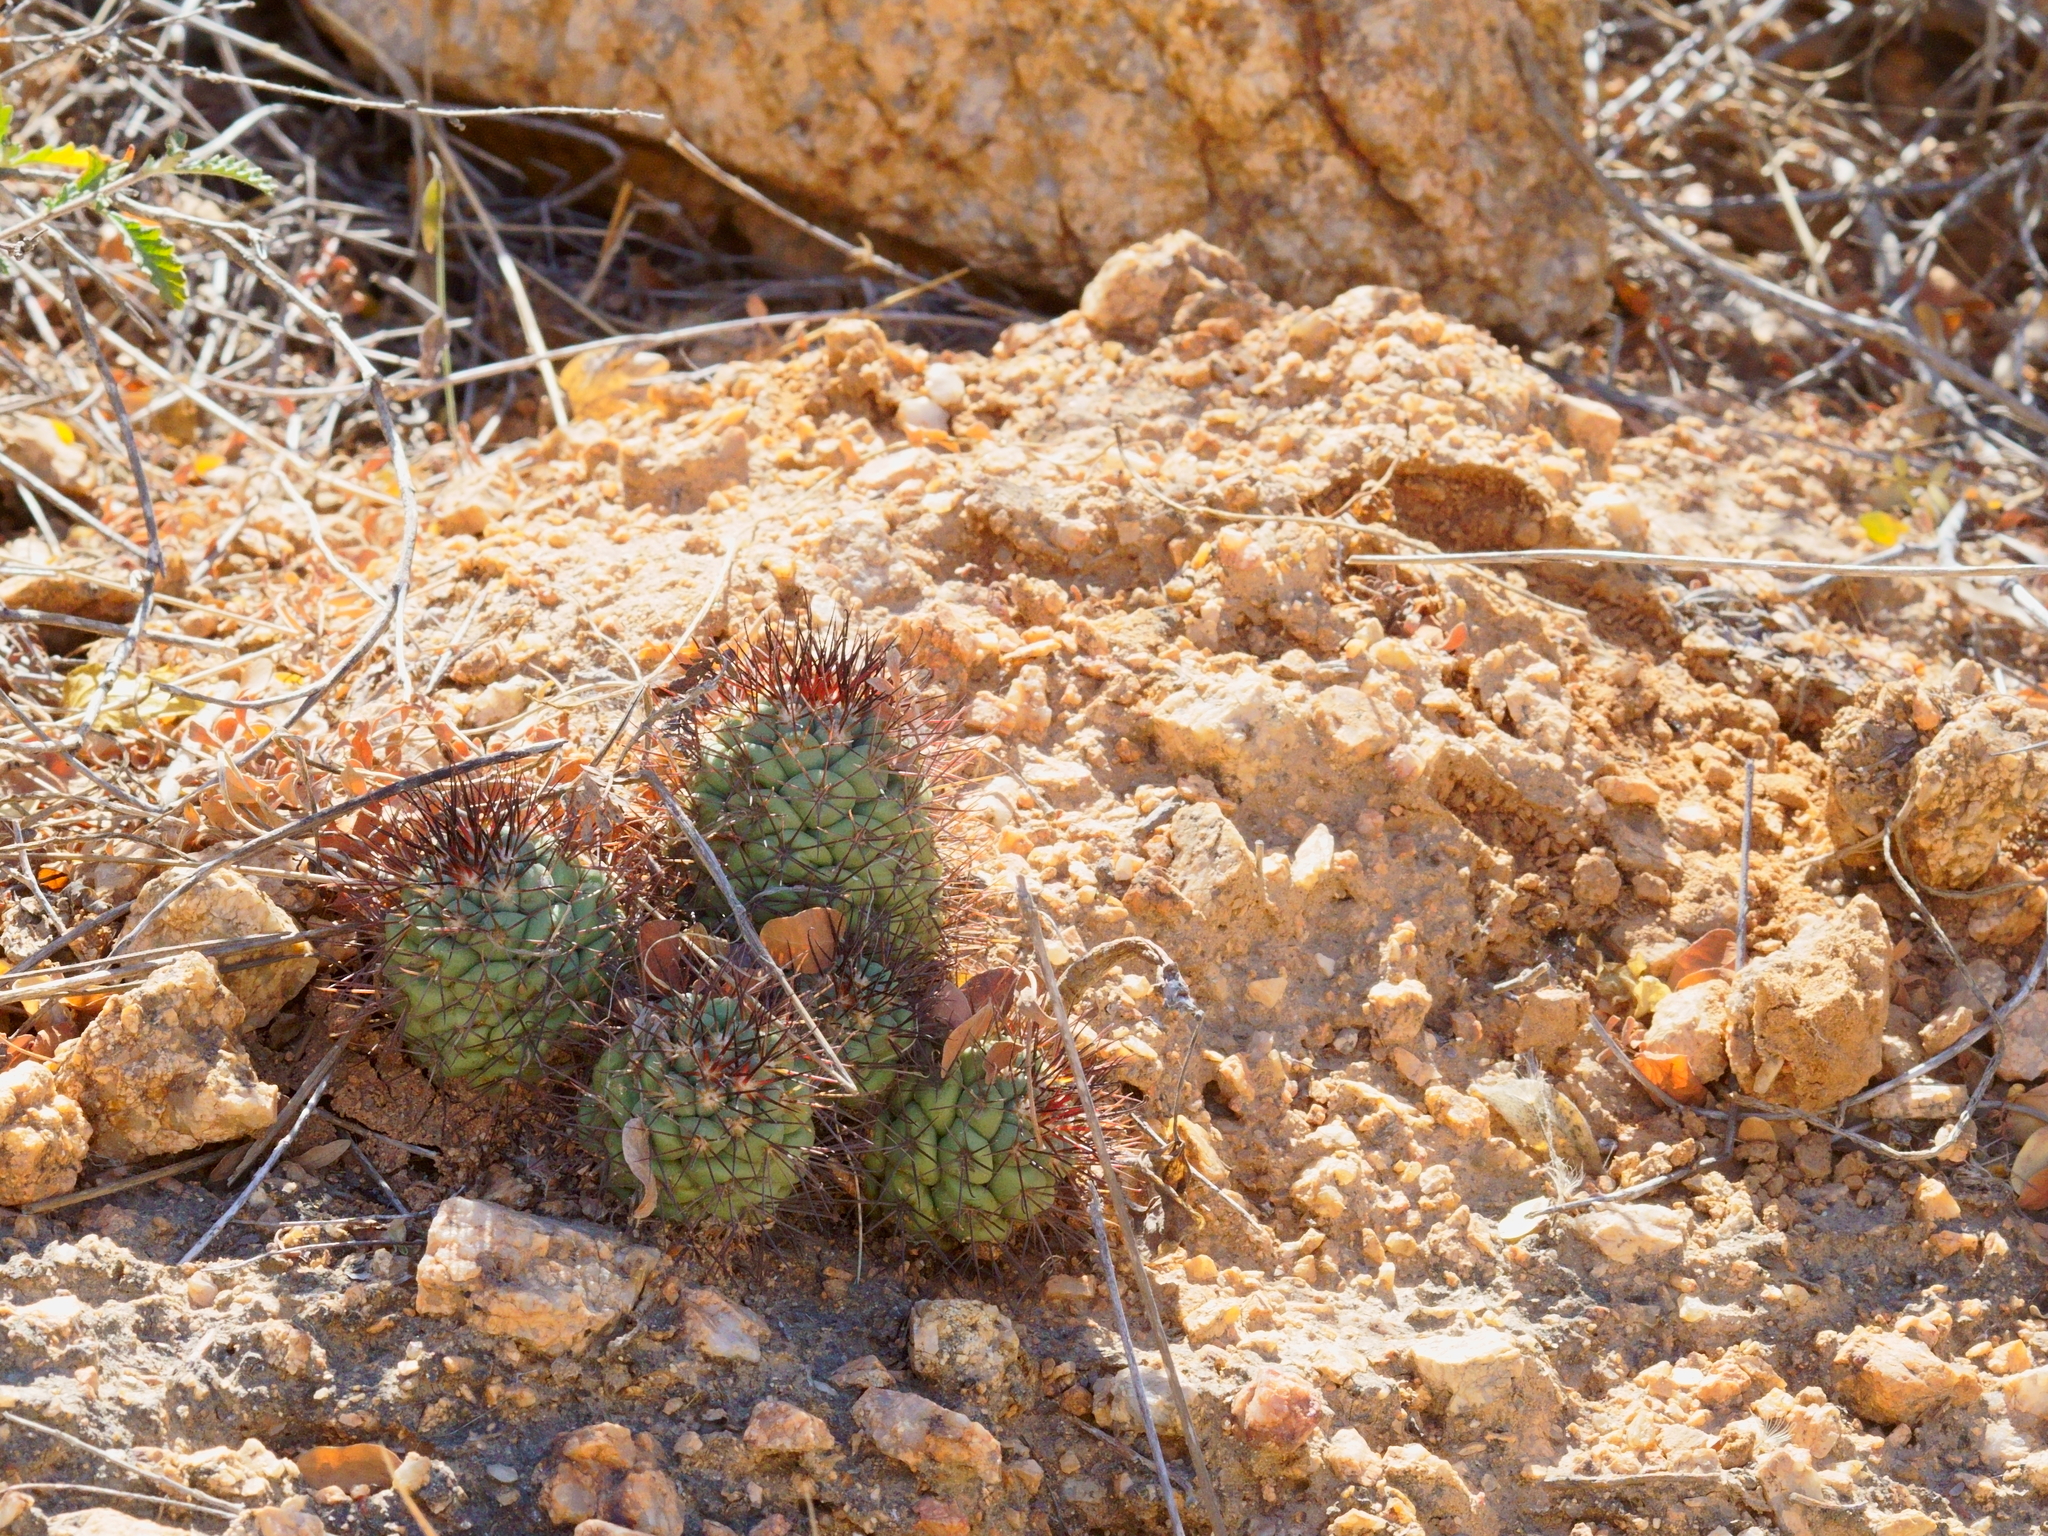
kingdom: Plantae
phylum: Tracheophyta
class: Magnoliopsida
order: Caryophyllales
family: Cactaceae
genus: Cochemiea
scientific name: Cochemiea schumannii
